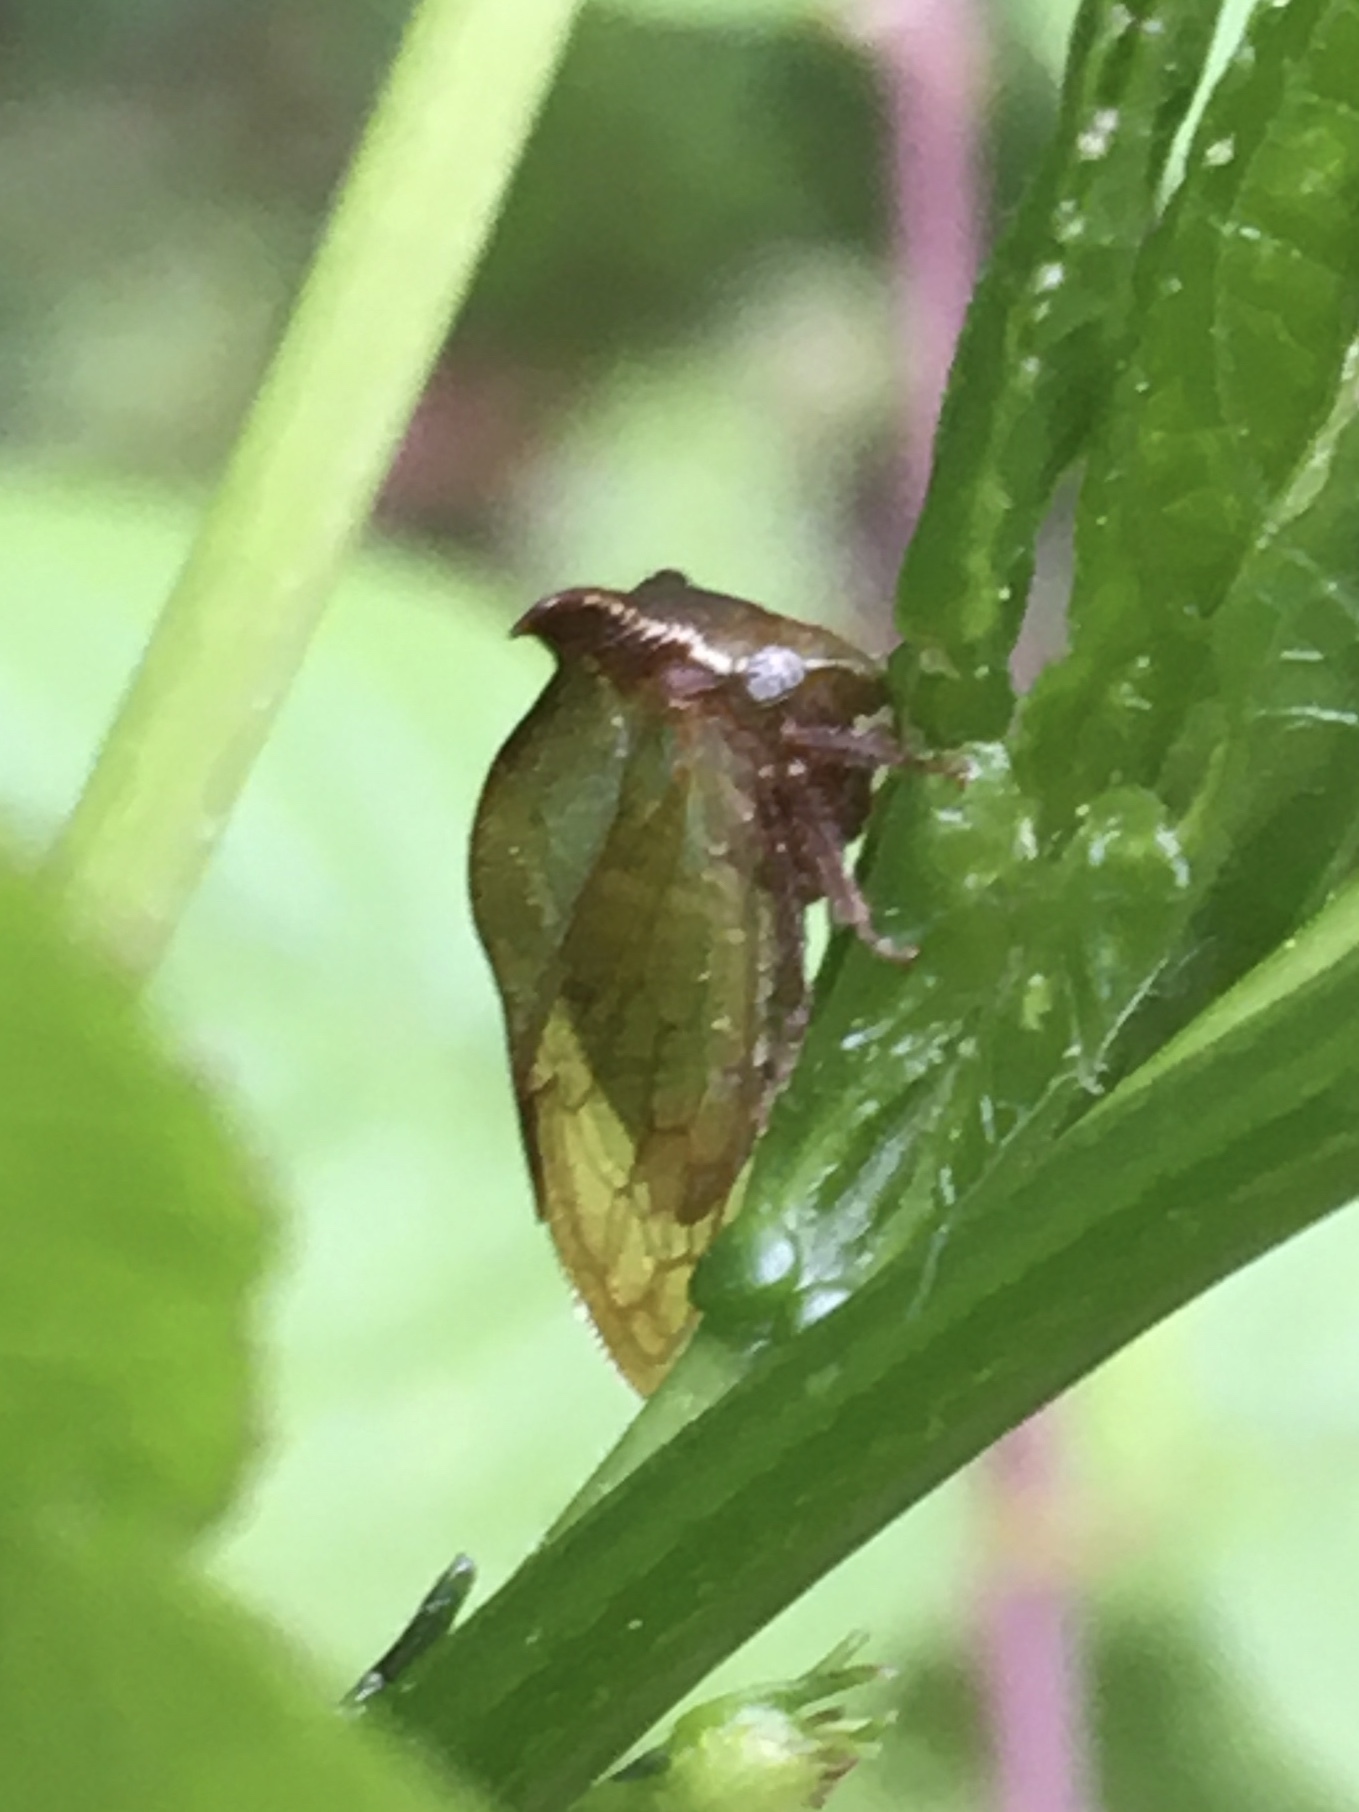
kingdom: Animalia
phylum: Arthropoda
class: Insecta
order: Hemiptera
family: Membracidae
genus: Stictocephala
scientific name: Stictocephala stimulea
